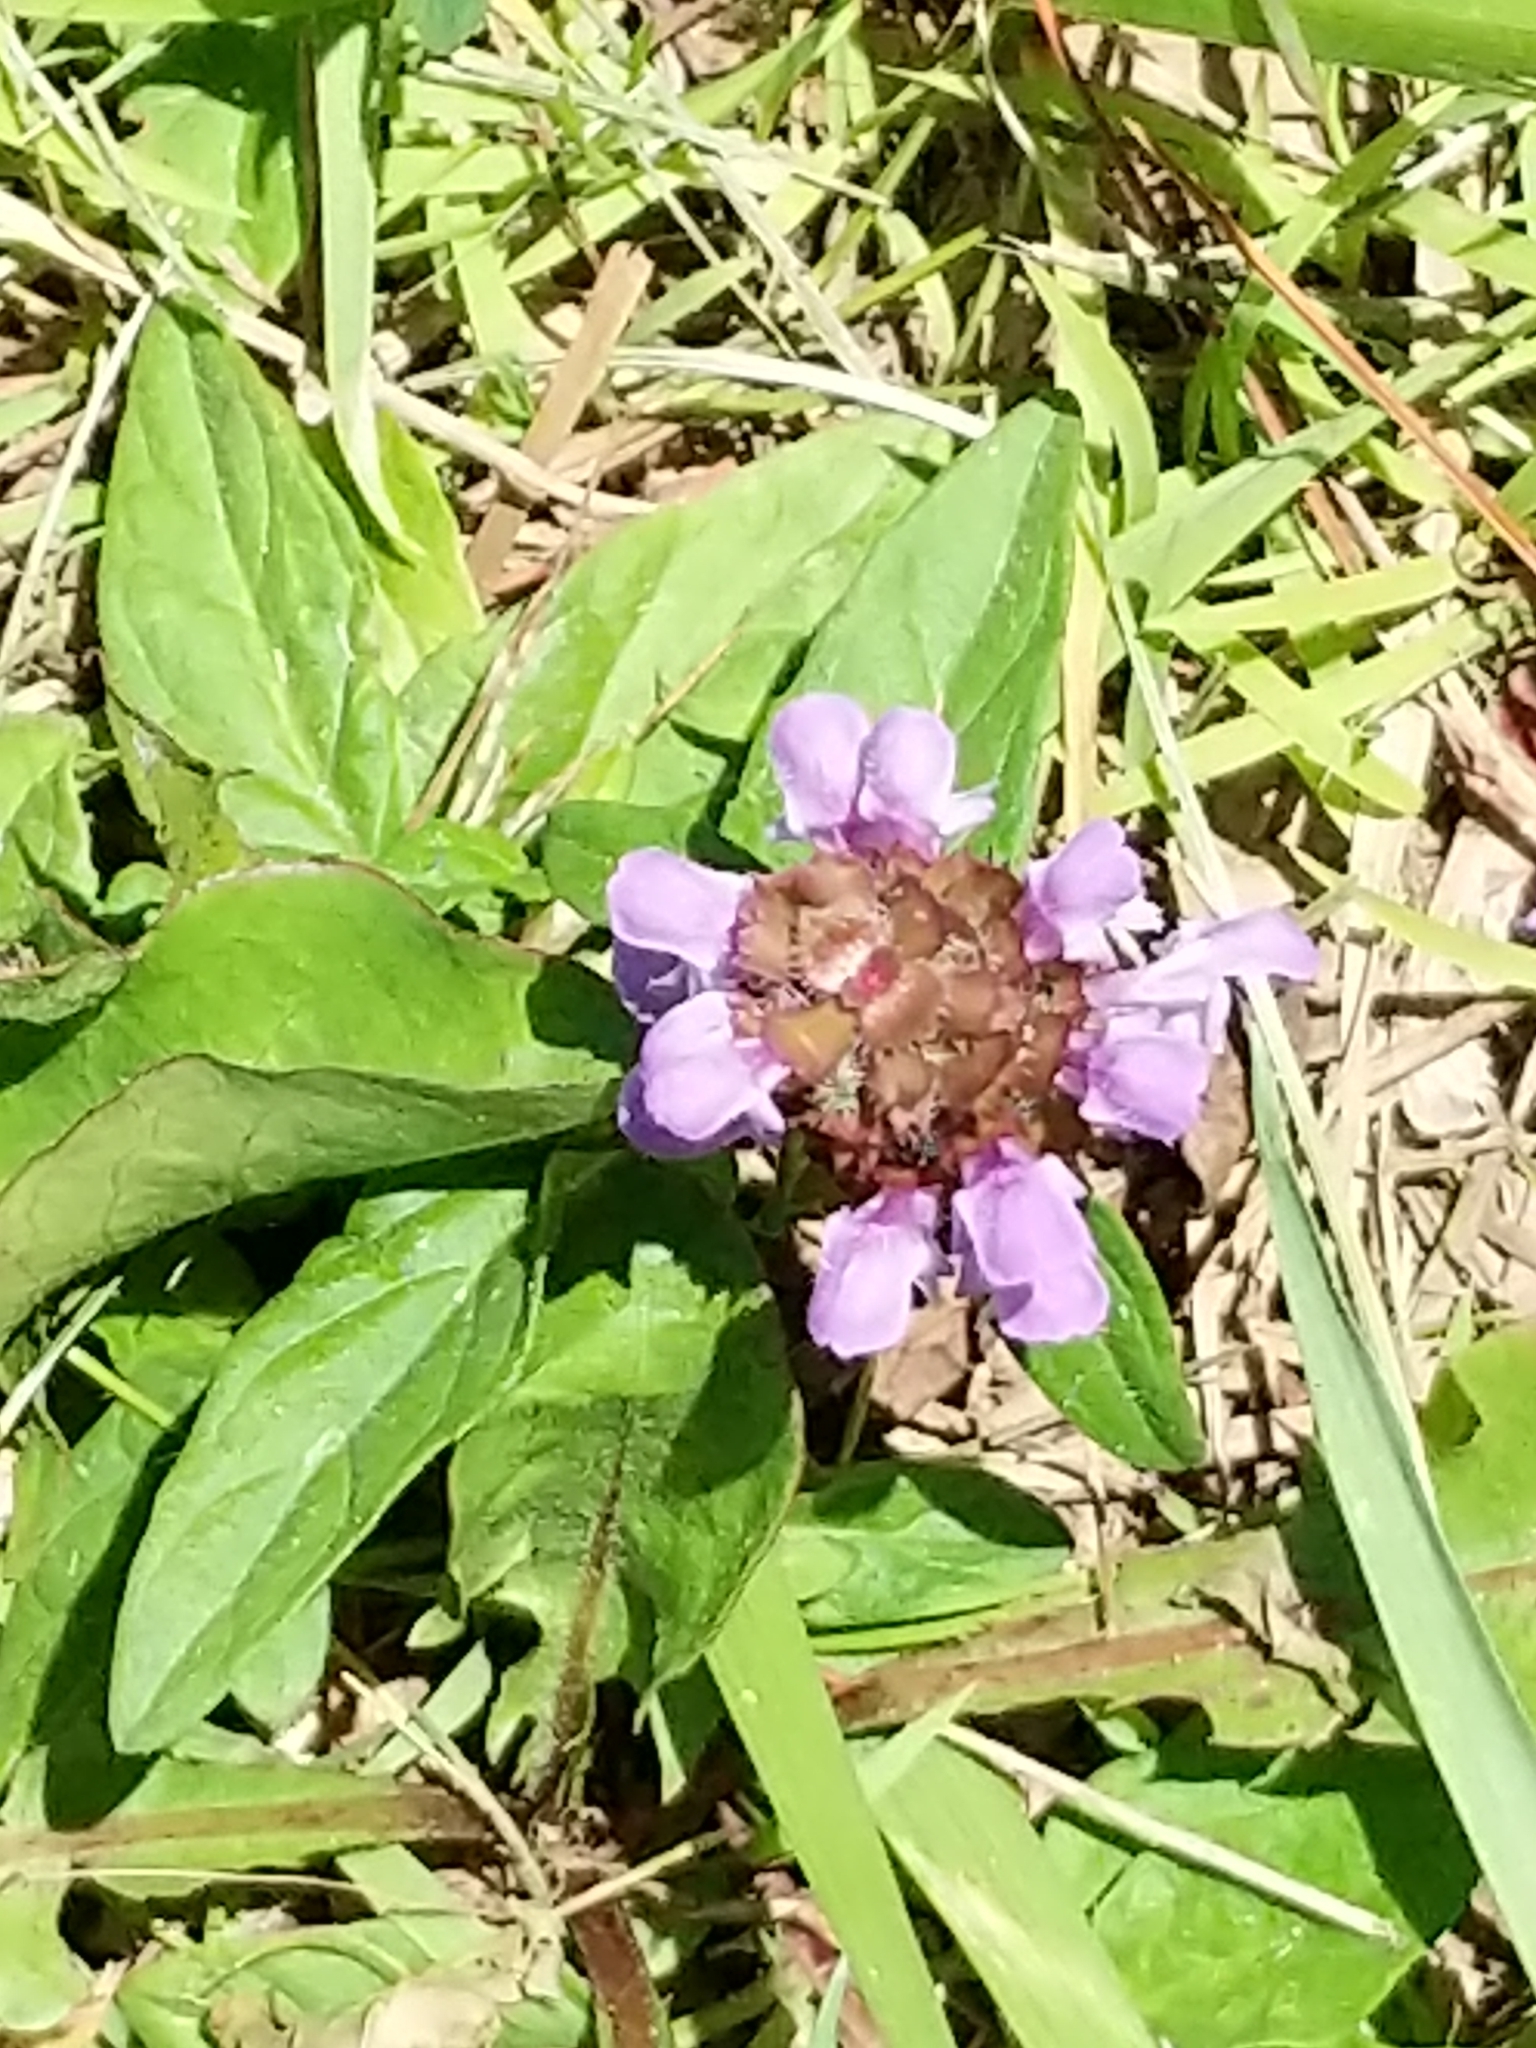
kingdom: Plantae
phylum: Tracheophyta
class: Magnoliopsida
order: Lamiales
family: Lamiaceae
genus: Prunella
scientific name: Prunella vulgaris
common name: Heal-all
